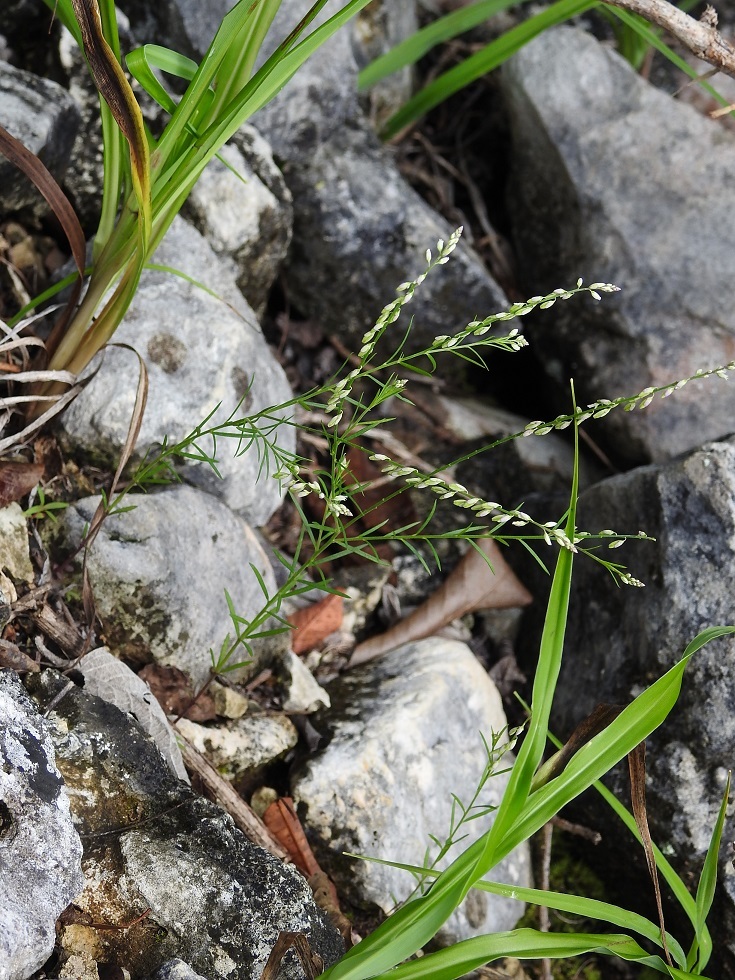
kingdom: Plantae
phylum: Tracheophyta
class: Magnoliopsida
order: Fabales
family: Polygalaceae
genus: Polygala
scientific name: Polygala alba
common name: White milkwort
